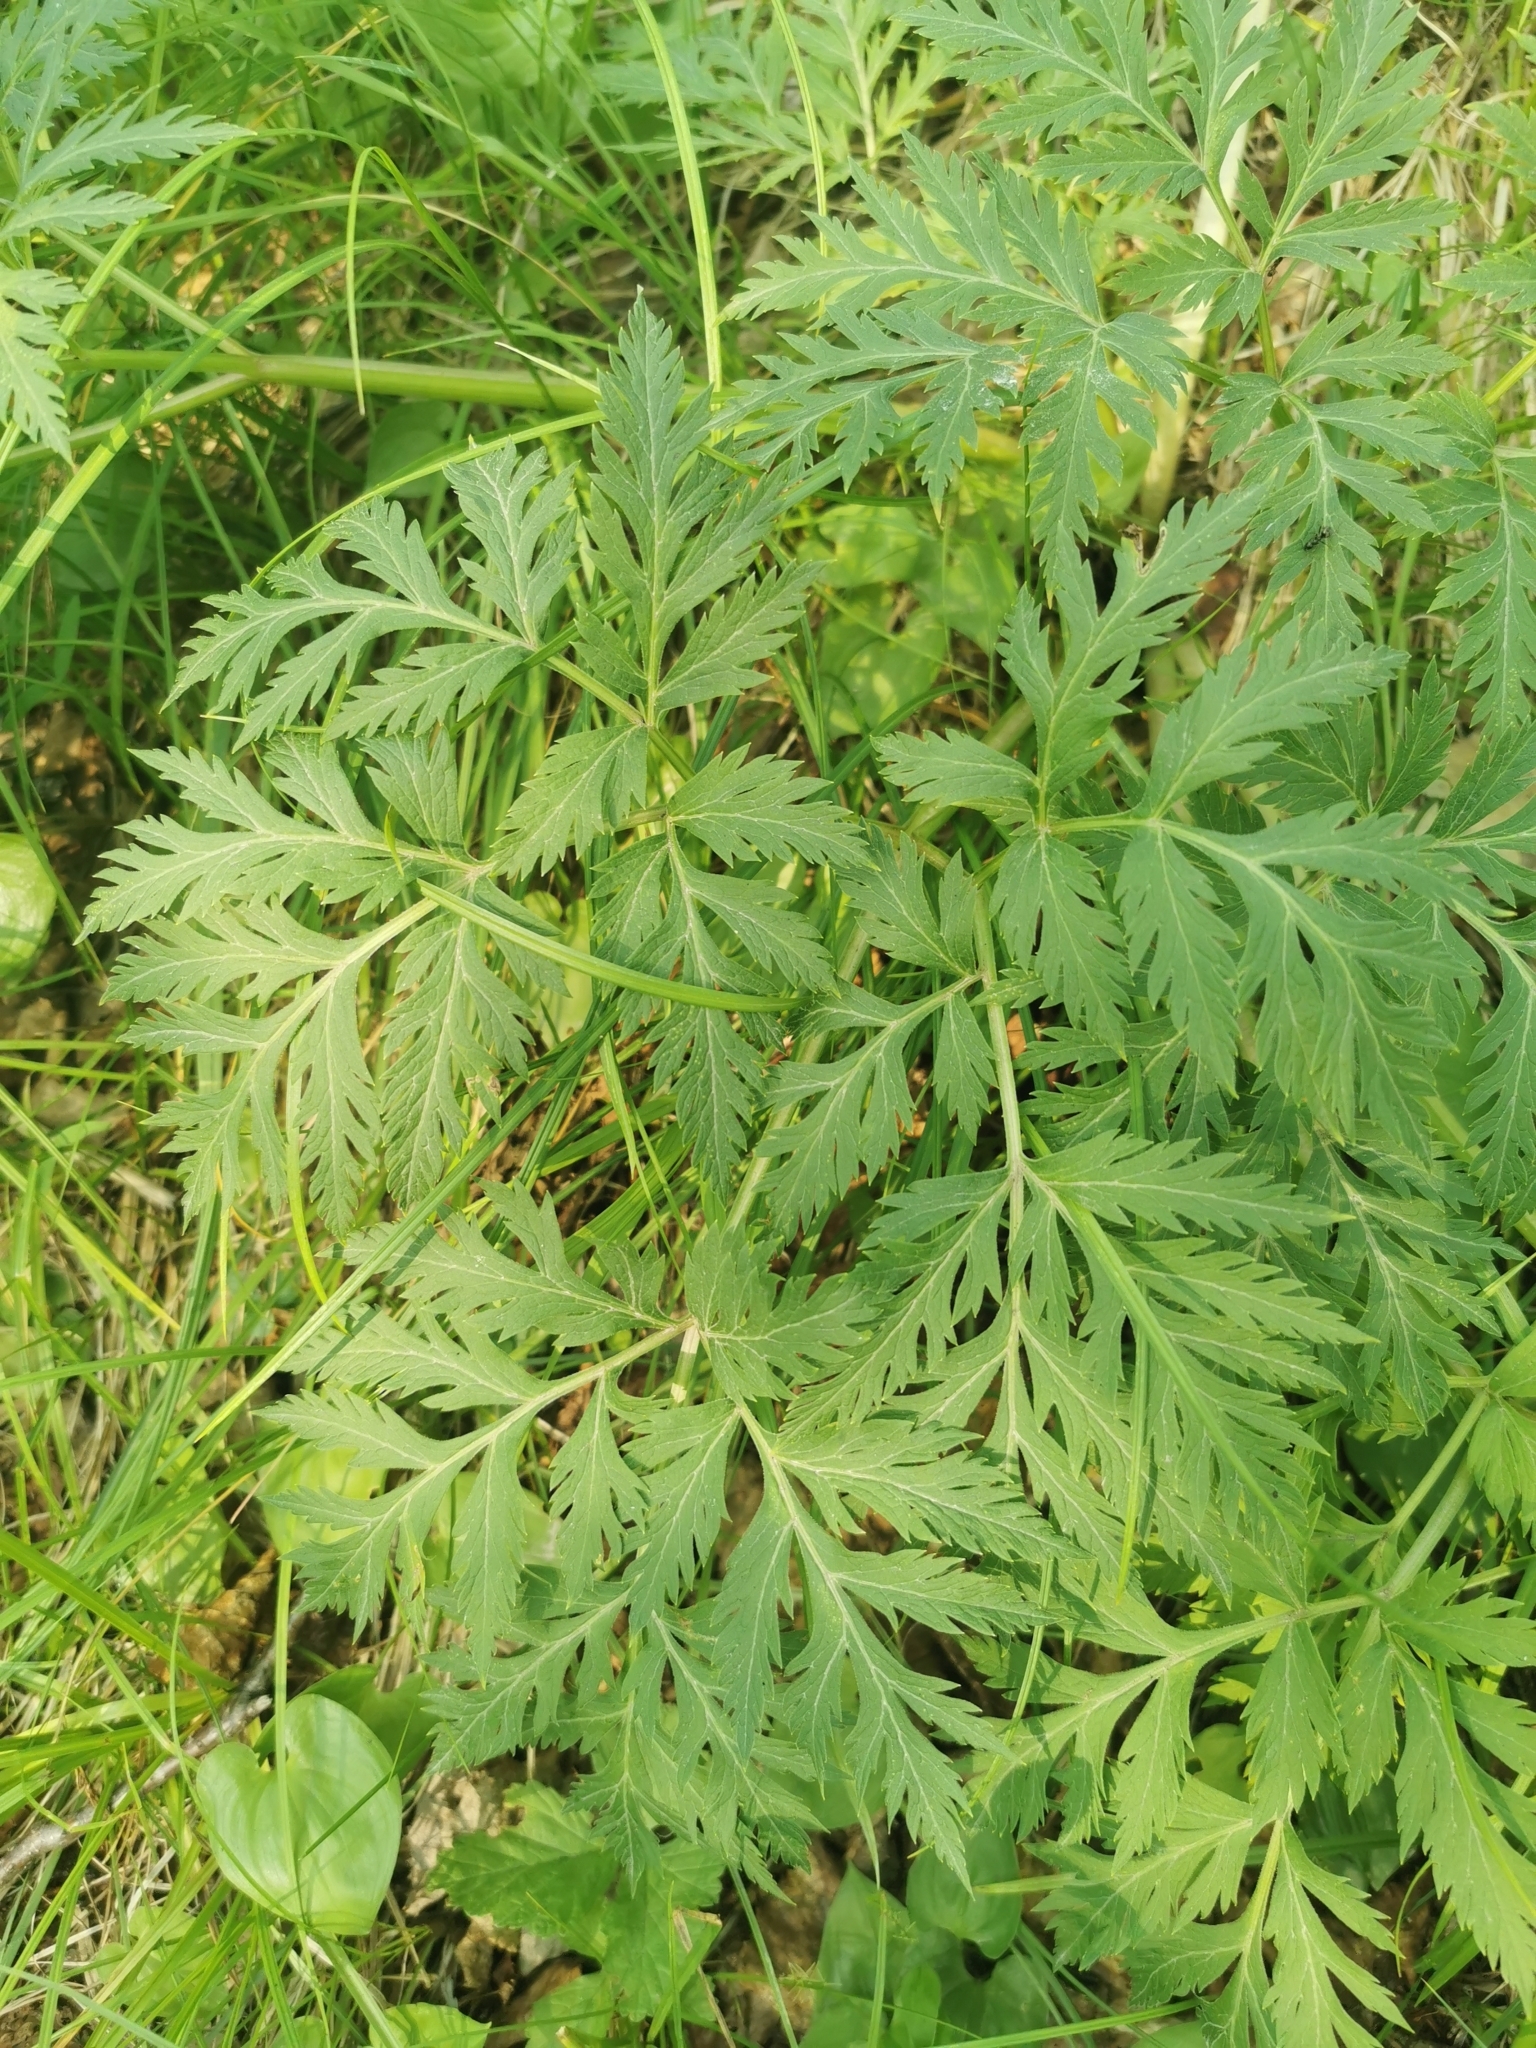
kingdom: Plantae
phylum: Tracheophyta
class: Magnoliopsida
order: Apiales
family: Apiaceae
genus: Pleurospermum
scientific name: Pleurospermum uralense
